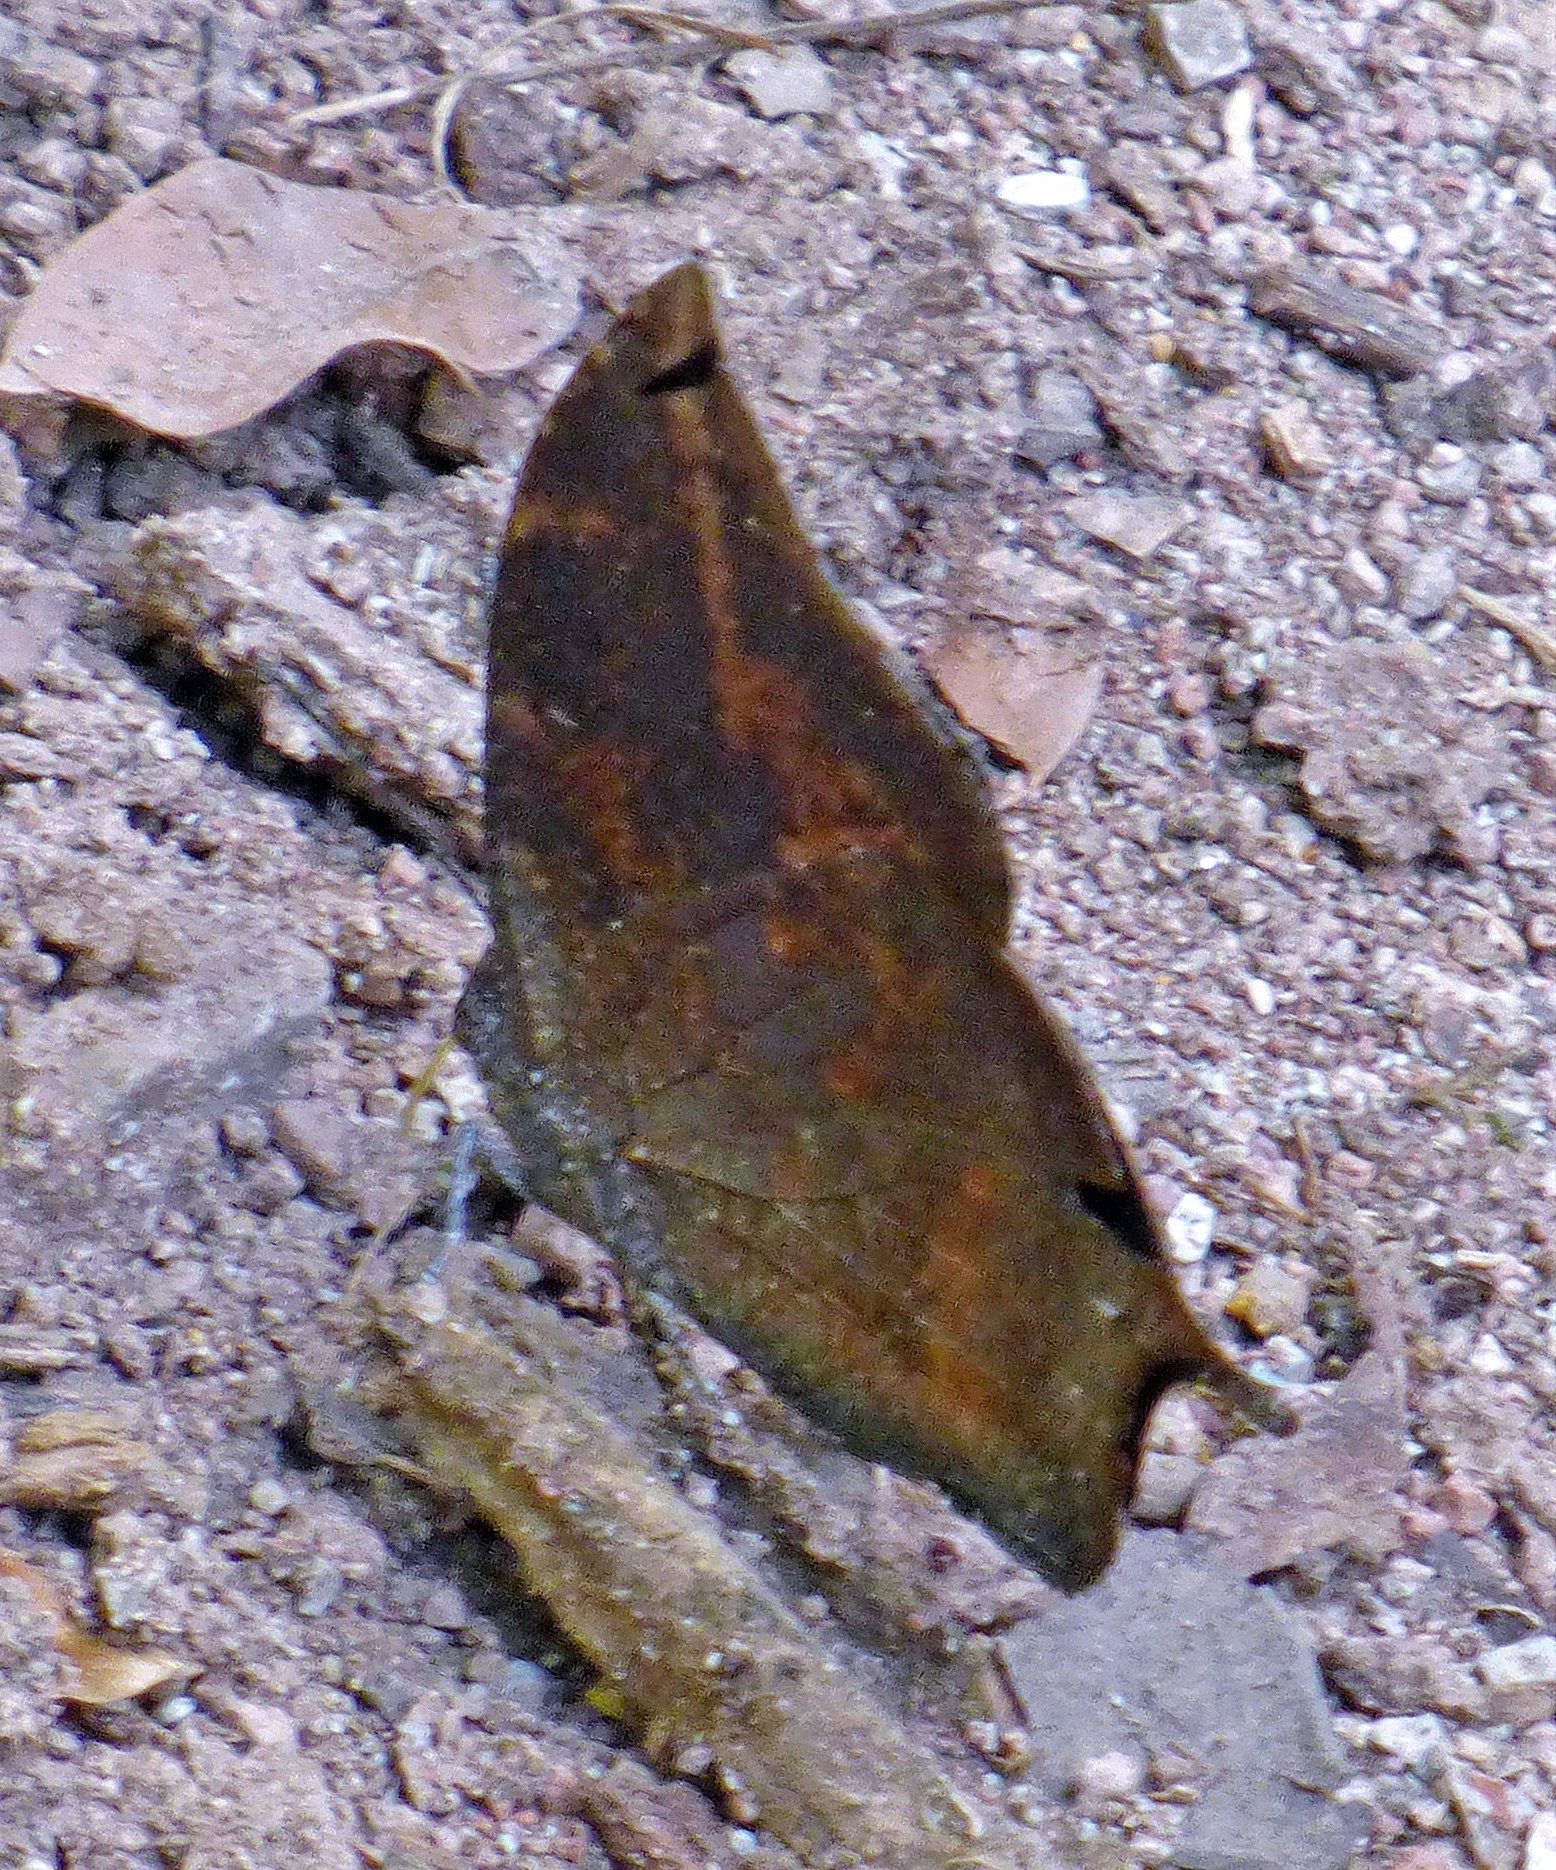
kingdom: Animalia
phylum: Arthropoda
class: Insecta
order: Lepidoptera
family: Nymphalidae
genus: Memphis
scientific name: Memphis morvus
